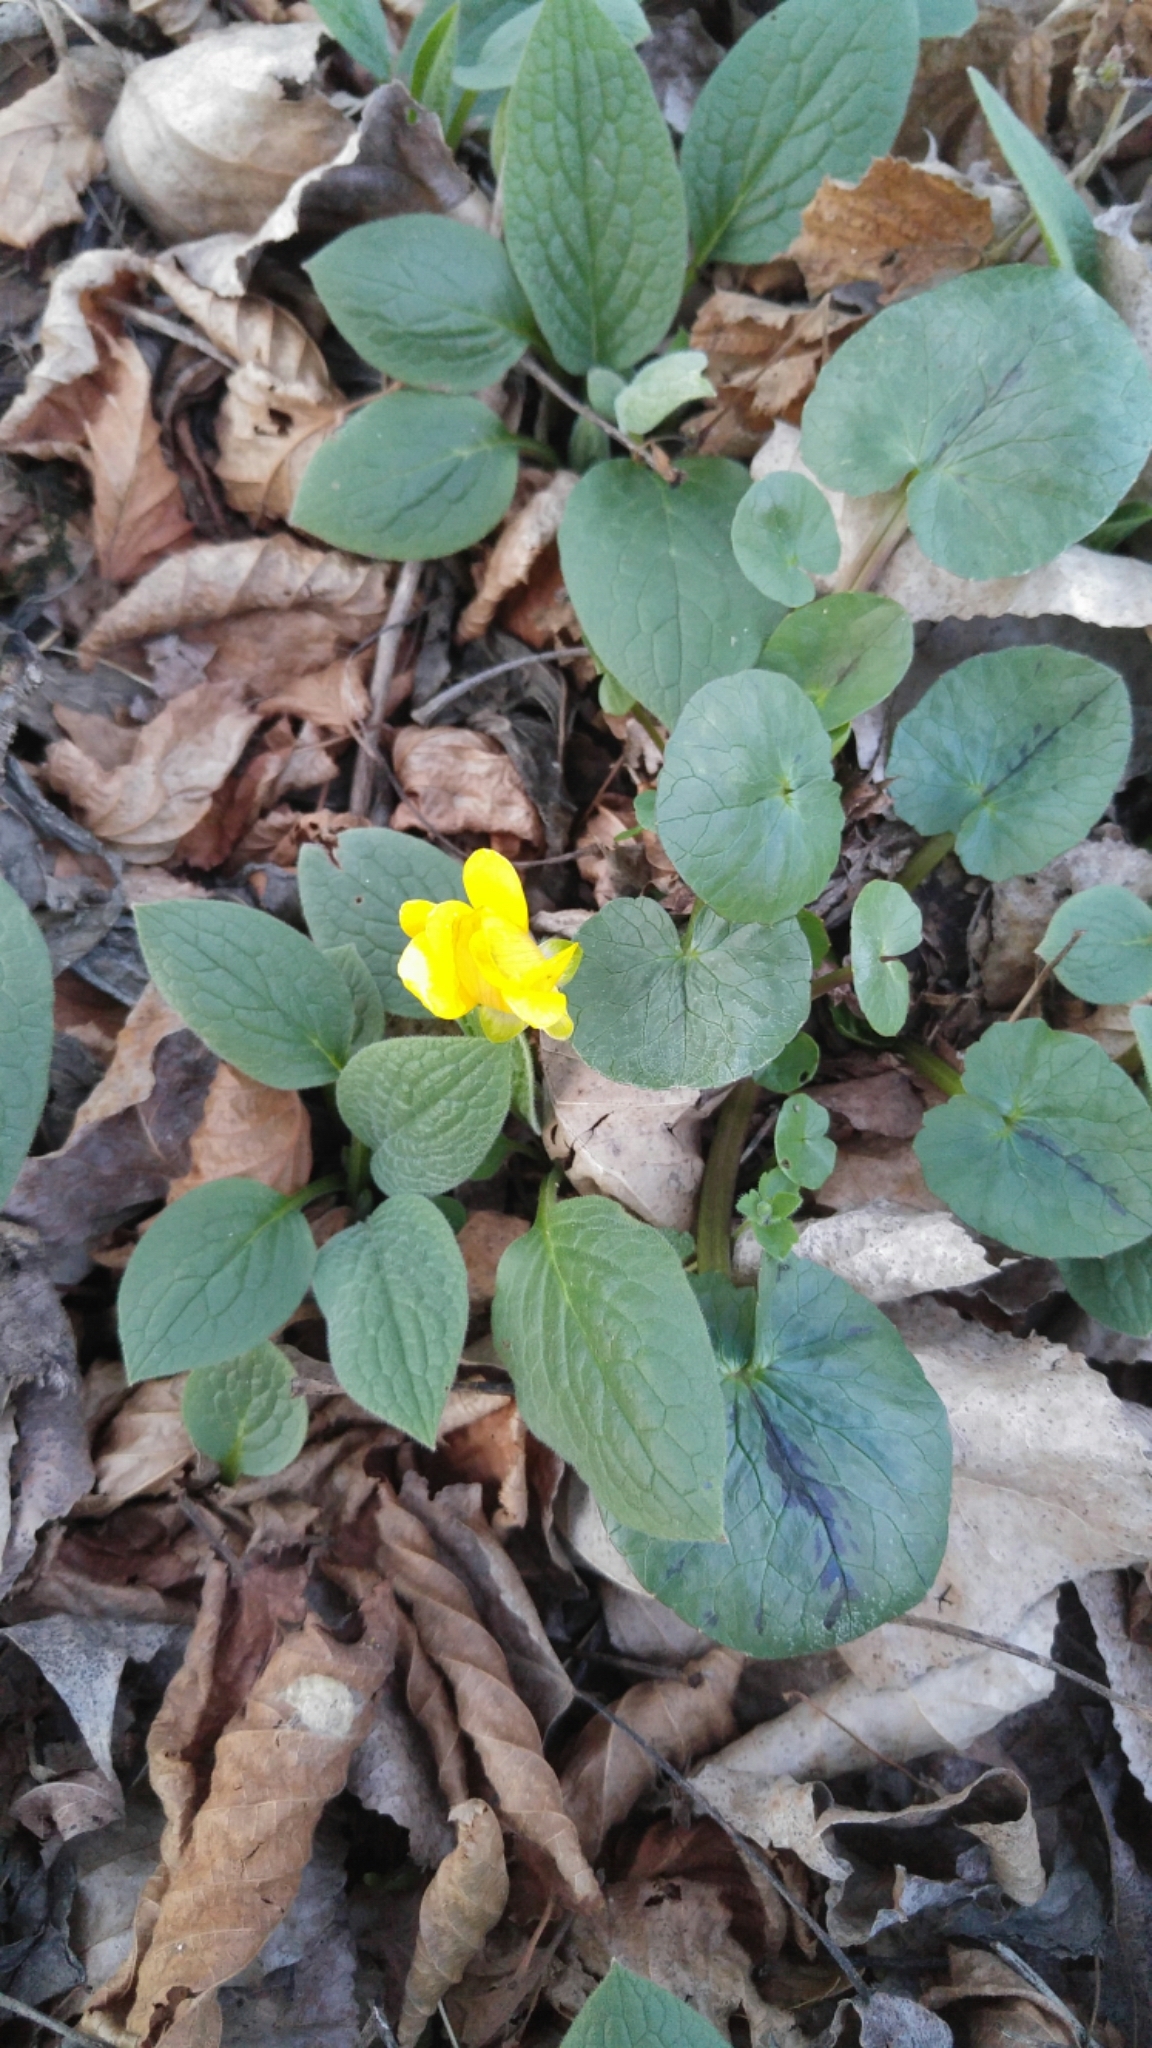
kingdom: Plantae
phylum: Tracheophyta
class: Magnoliopsida
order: Ranunculales
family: Ranunculaceae
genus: Ficaria
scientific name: Ficaria verna
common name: Lesser celandine
